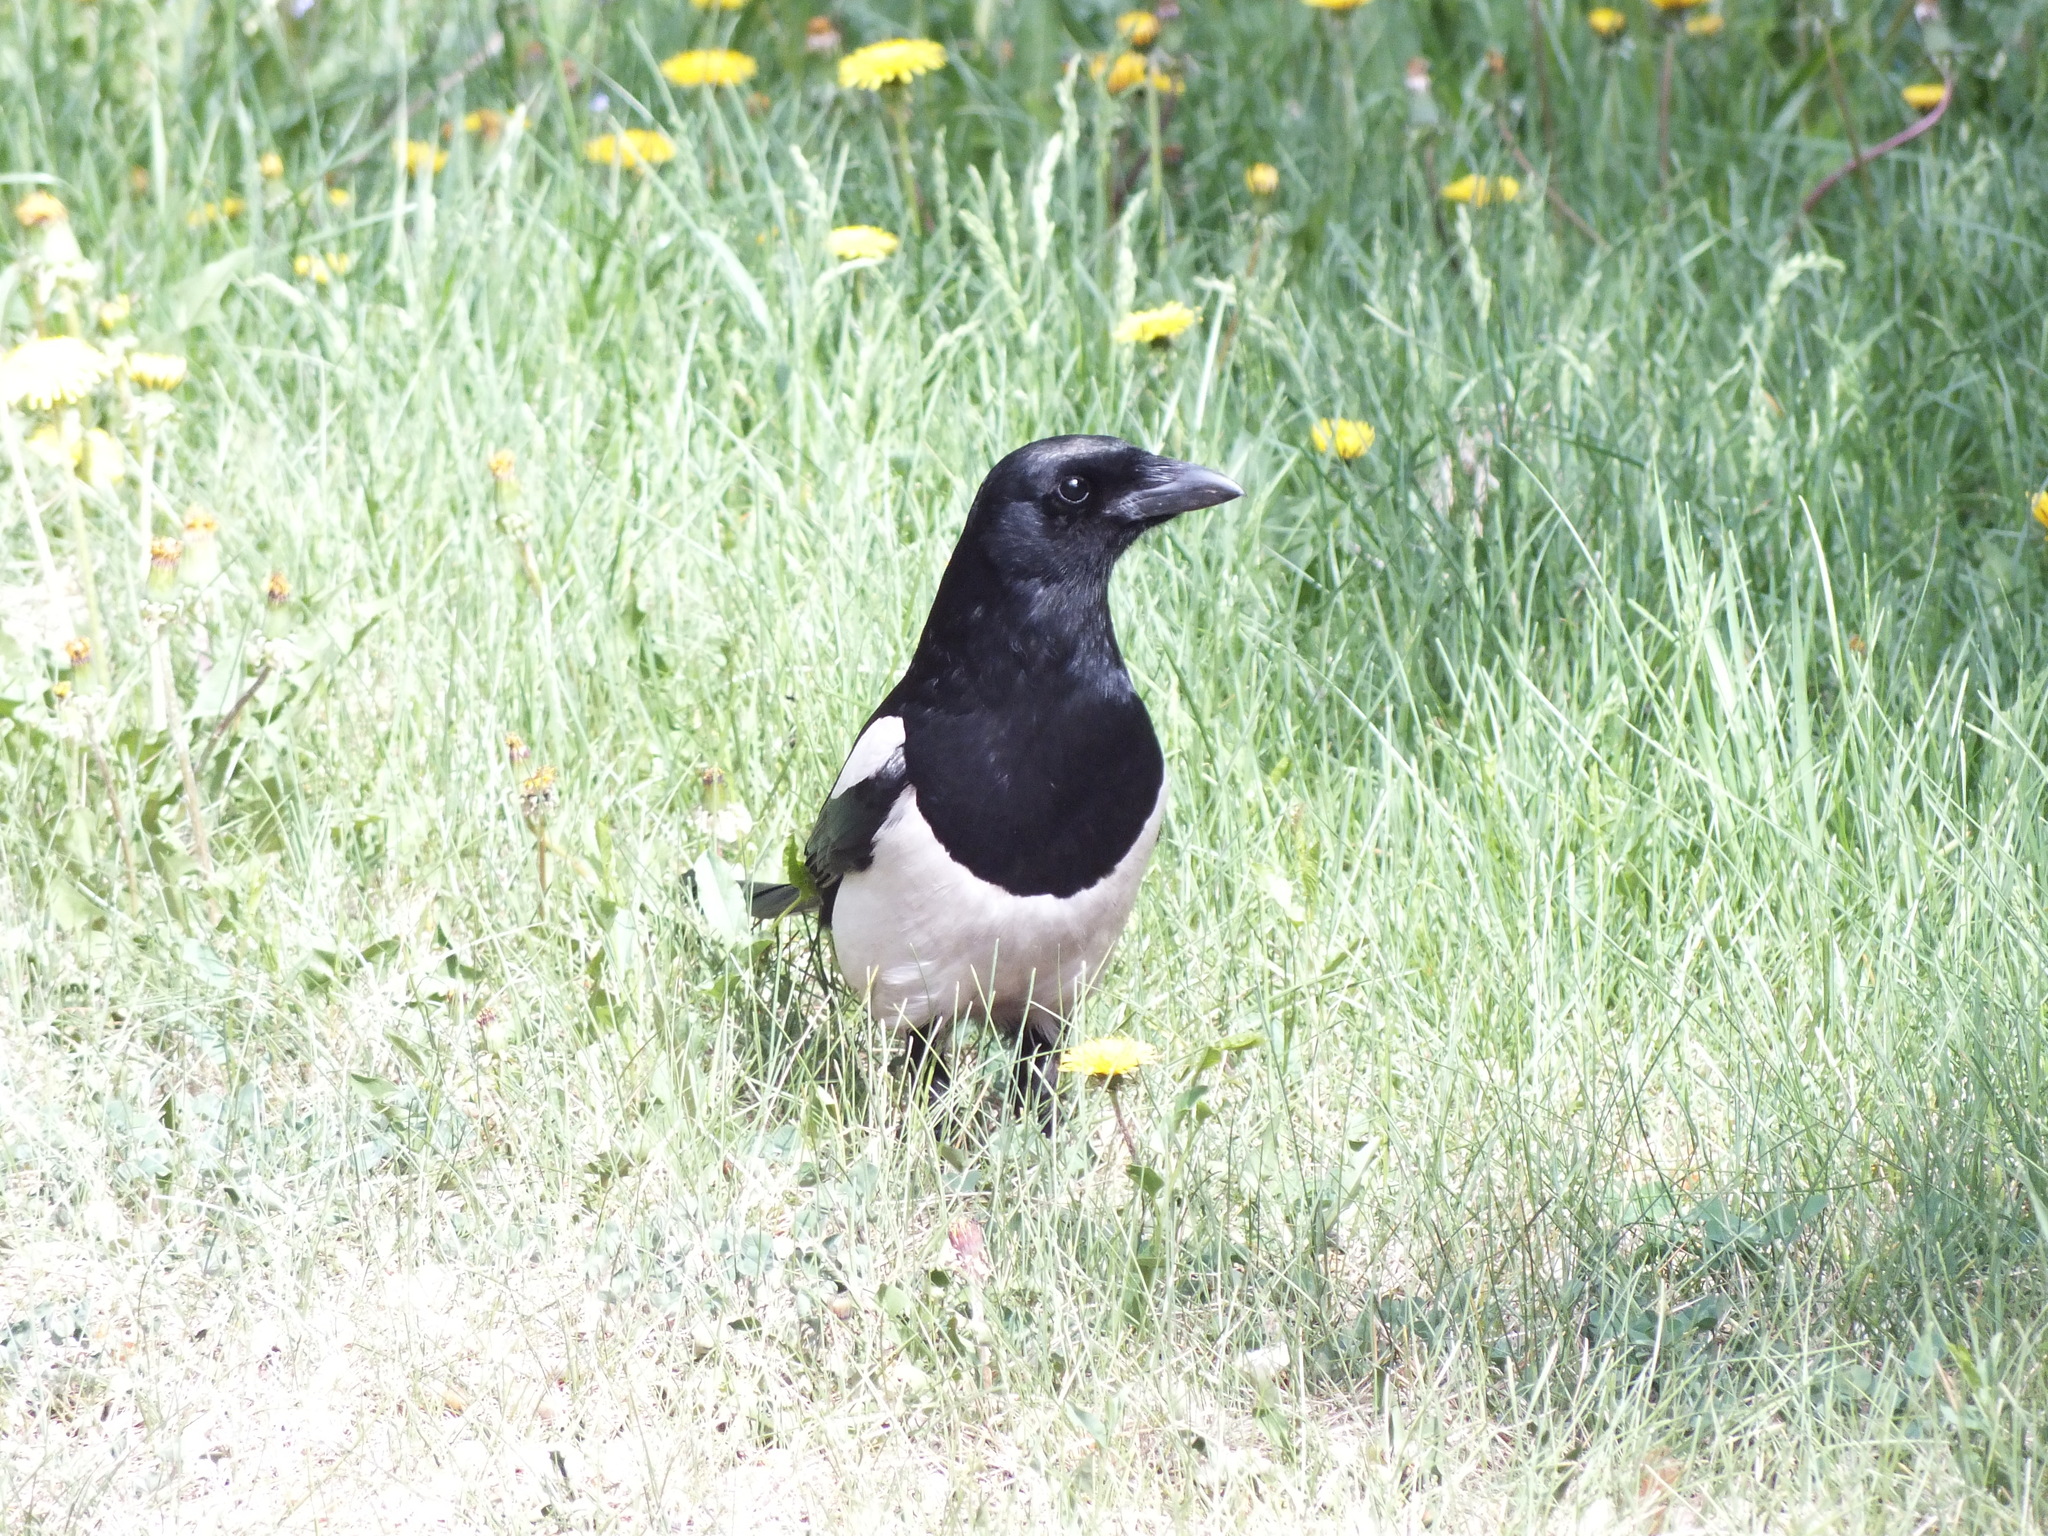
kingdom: Animalia
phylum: Chordata
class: Aves
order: Passeriformes
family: Corvidae
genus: Pica
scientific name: Pica pica
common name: Eurasian magpie
